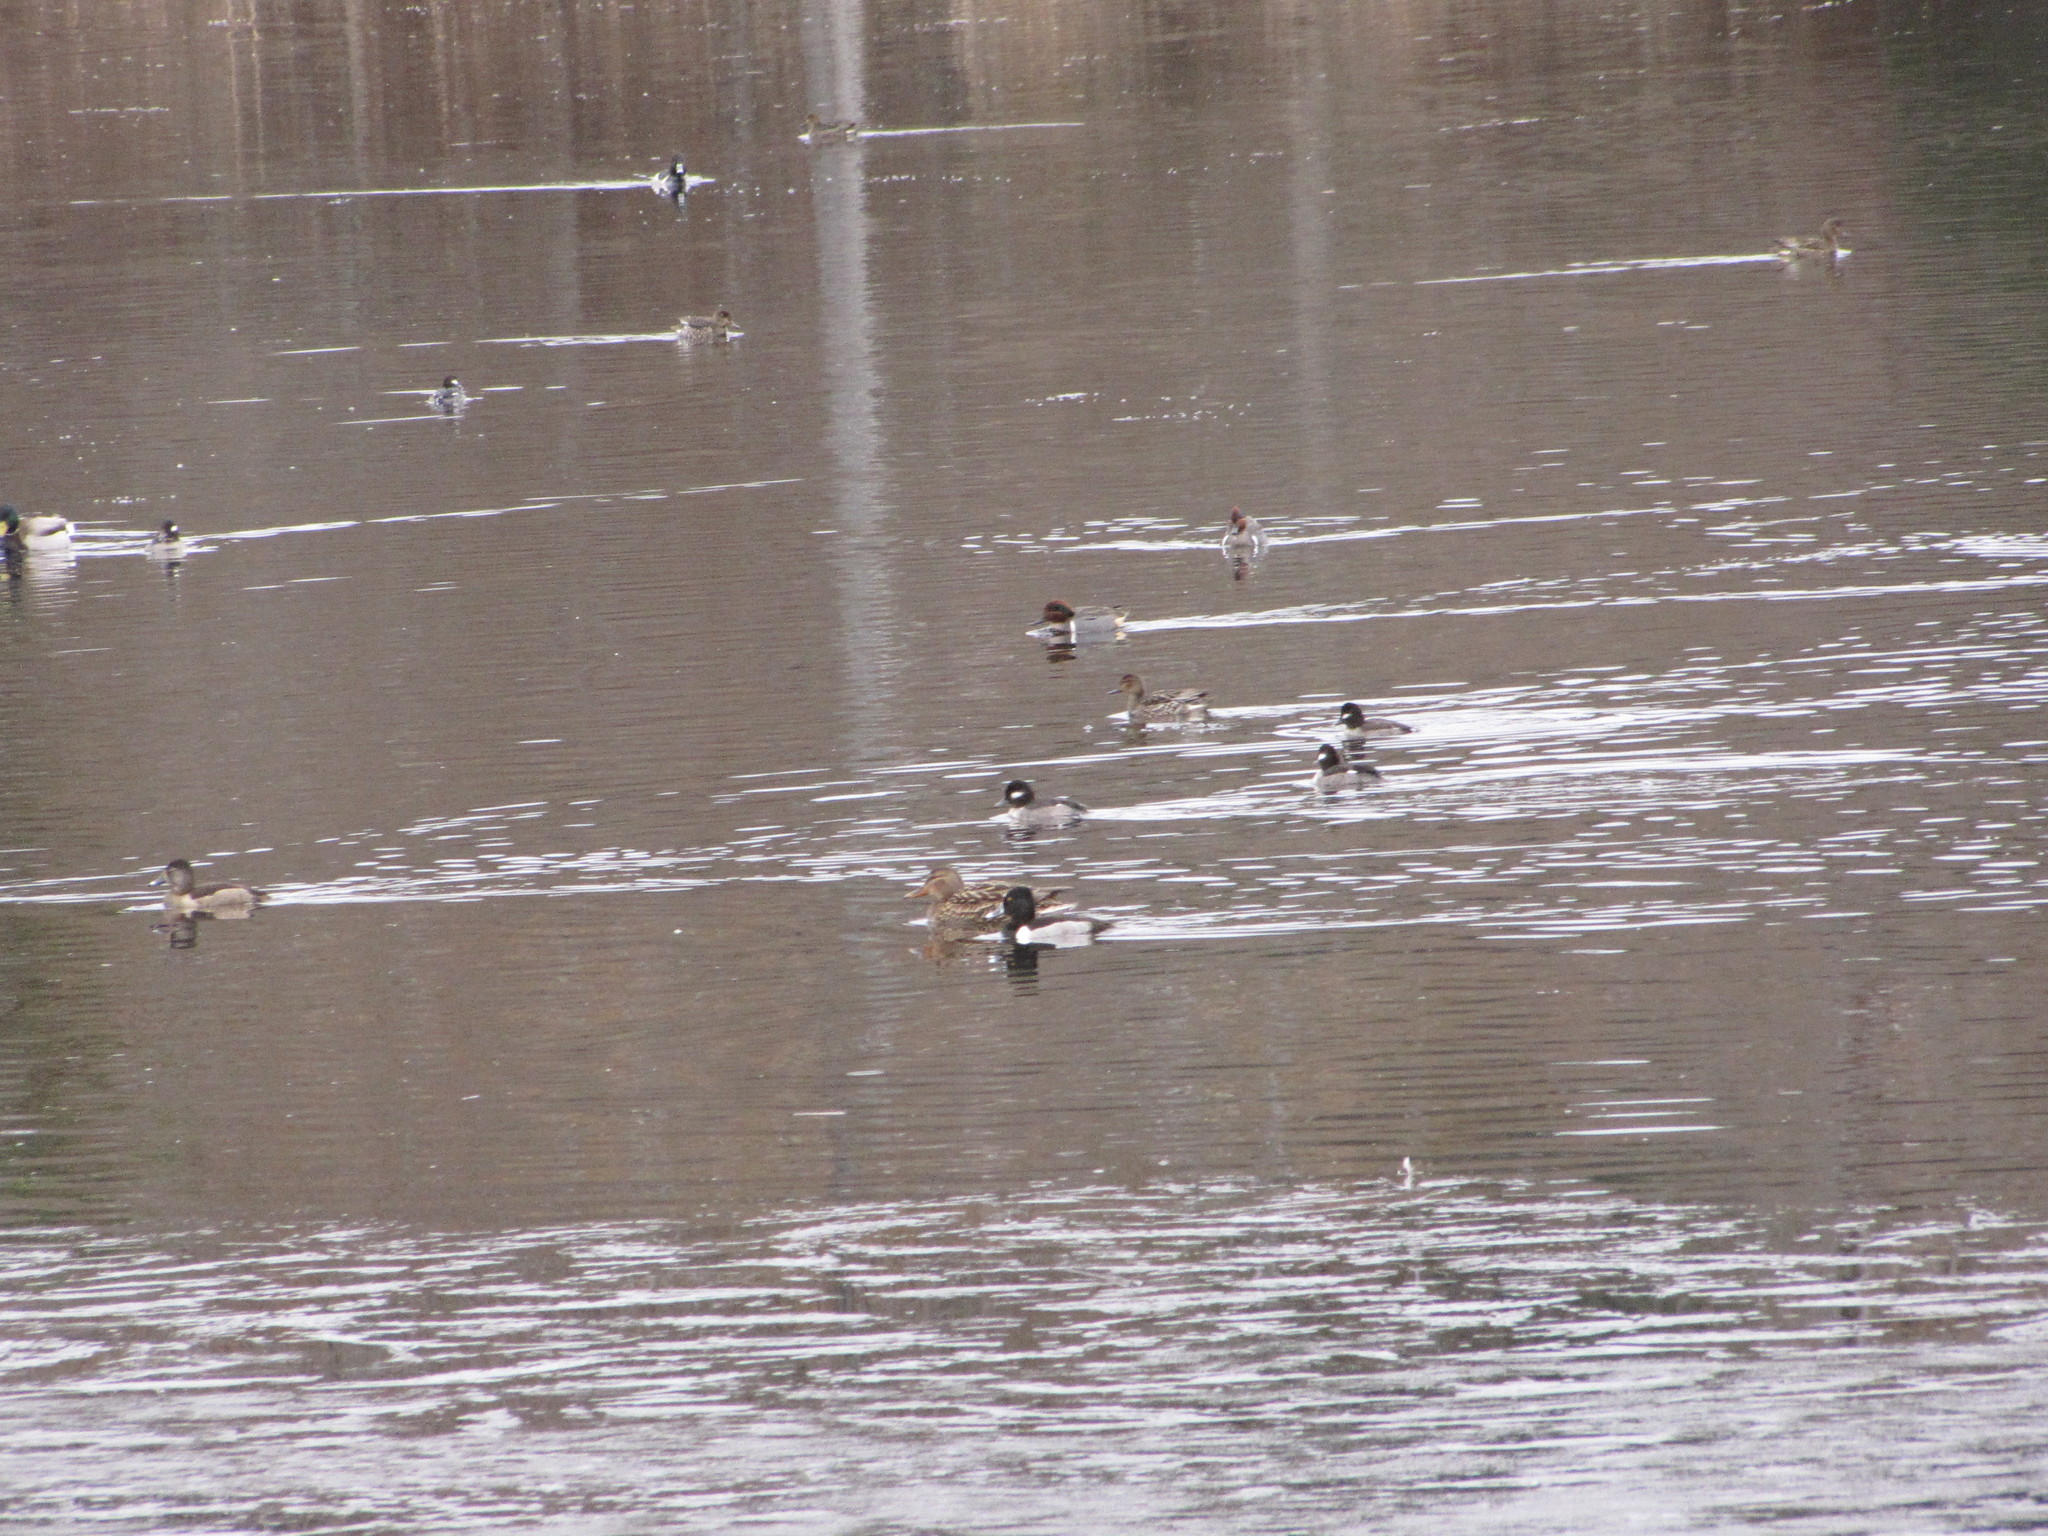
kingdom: Animalia
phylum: Chordata
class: Aves
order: Anseriformes
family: Anatidae
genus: Anas
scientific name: Anas platyrhynchos
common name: Mallard
